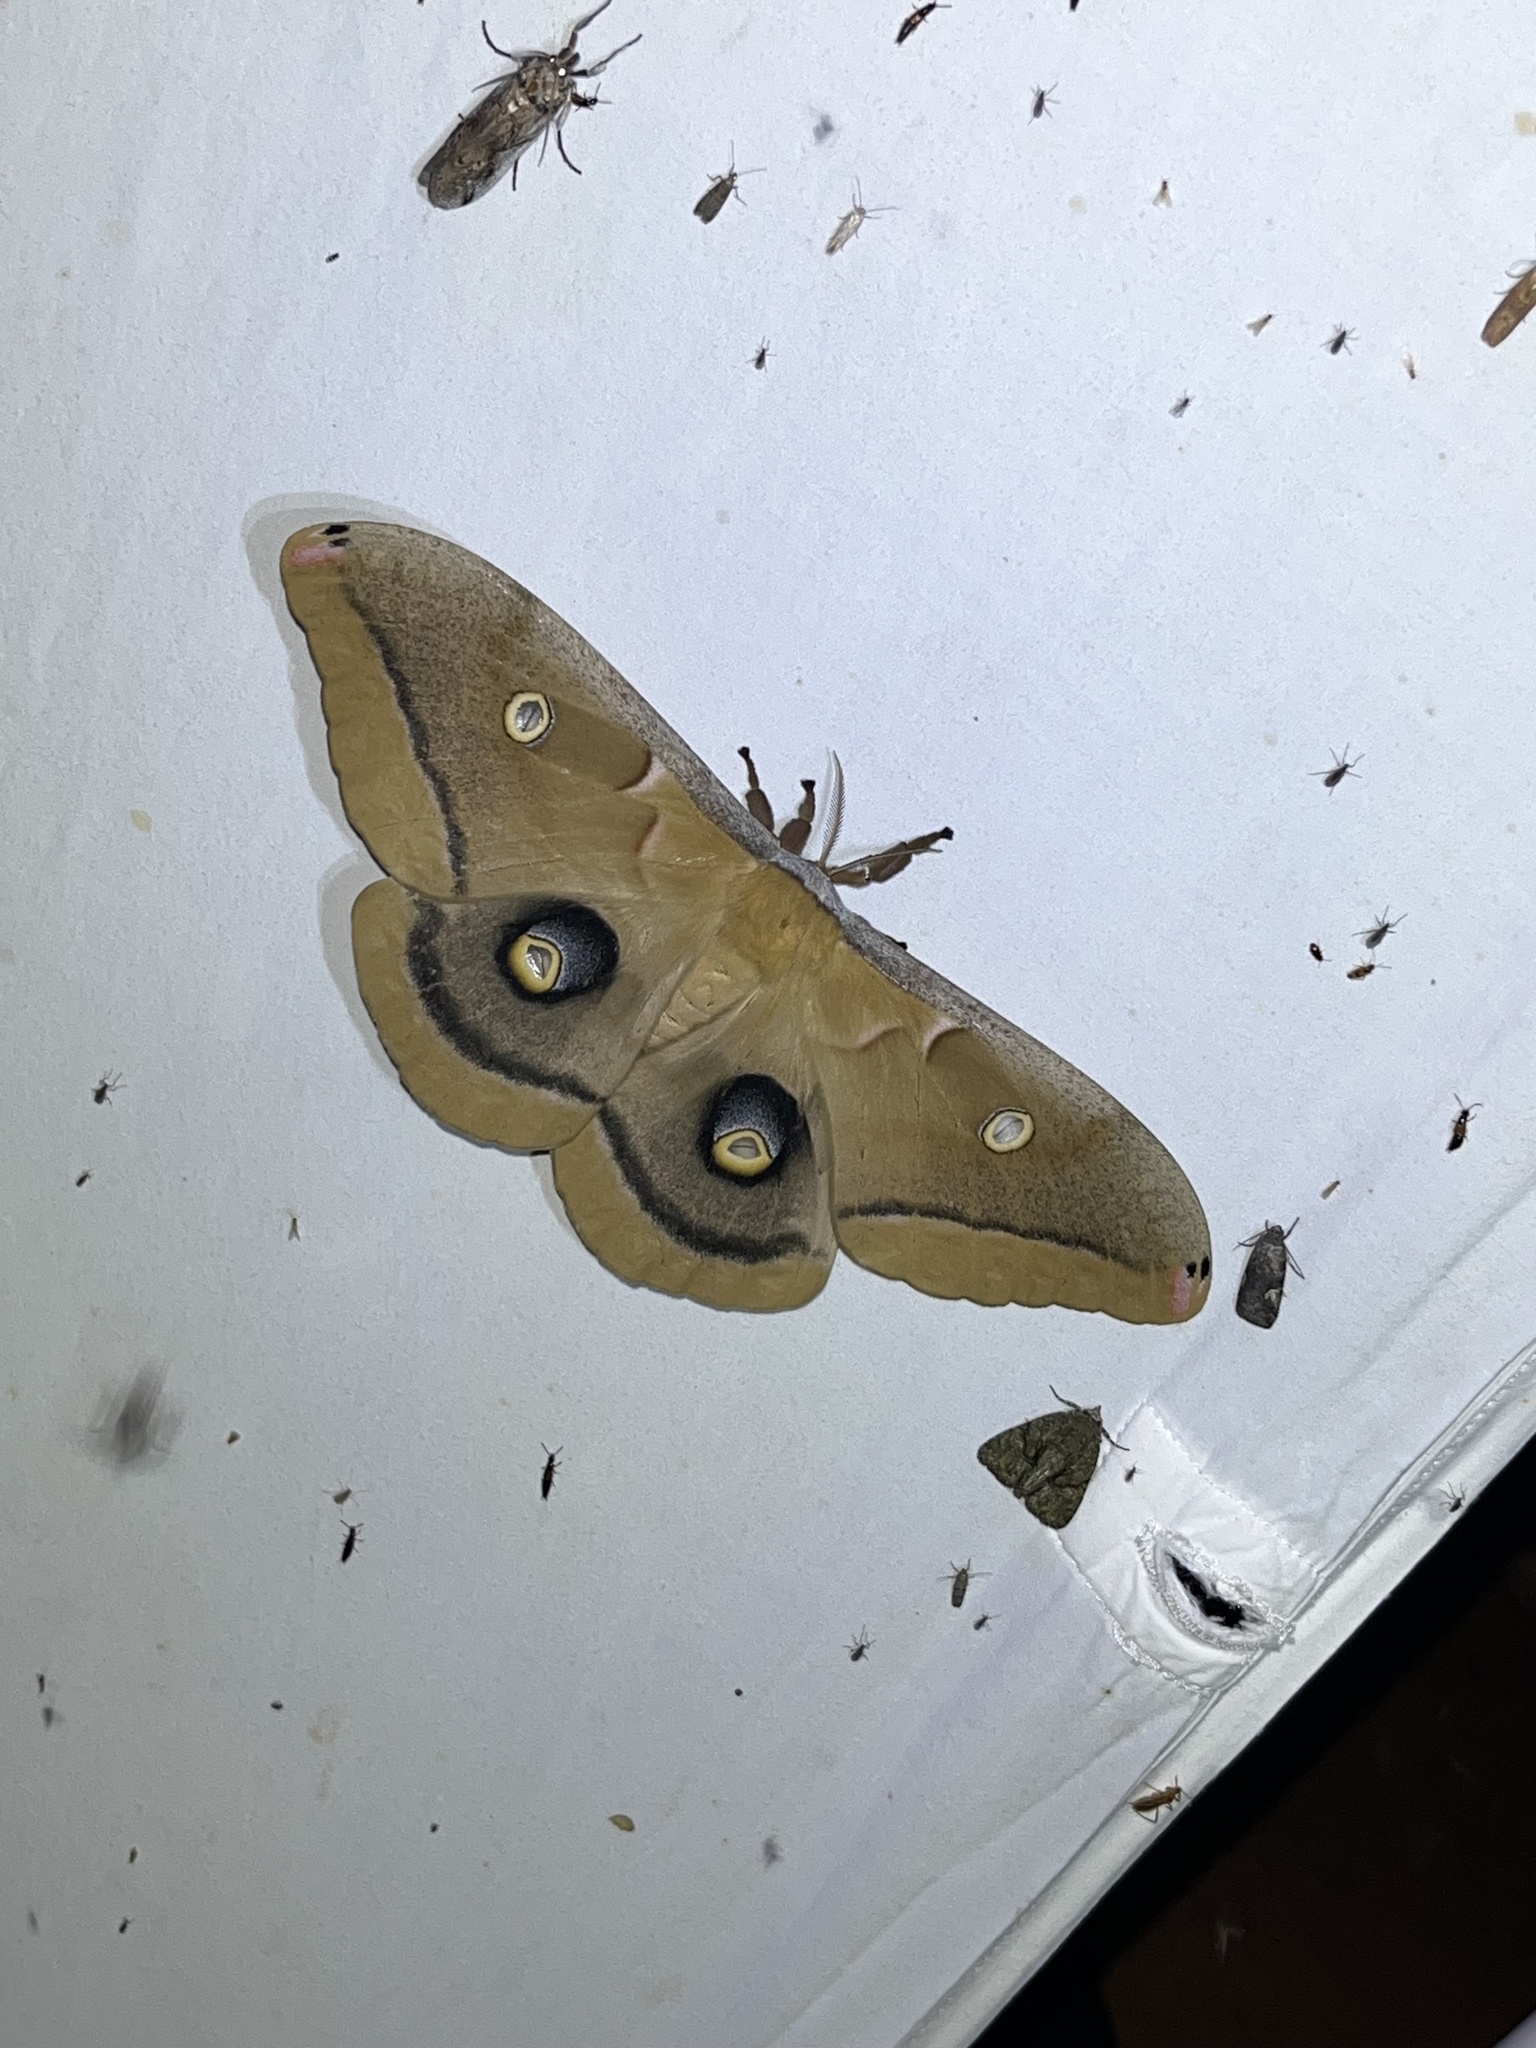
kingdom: Animalia
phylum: Arthropoda
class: Insecta
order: Lepidoptera
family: Saturniidae
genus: Antheraea
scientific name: Antheraea polyphemus
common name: Polyphemus moth
